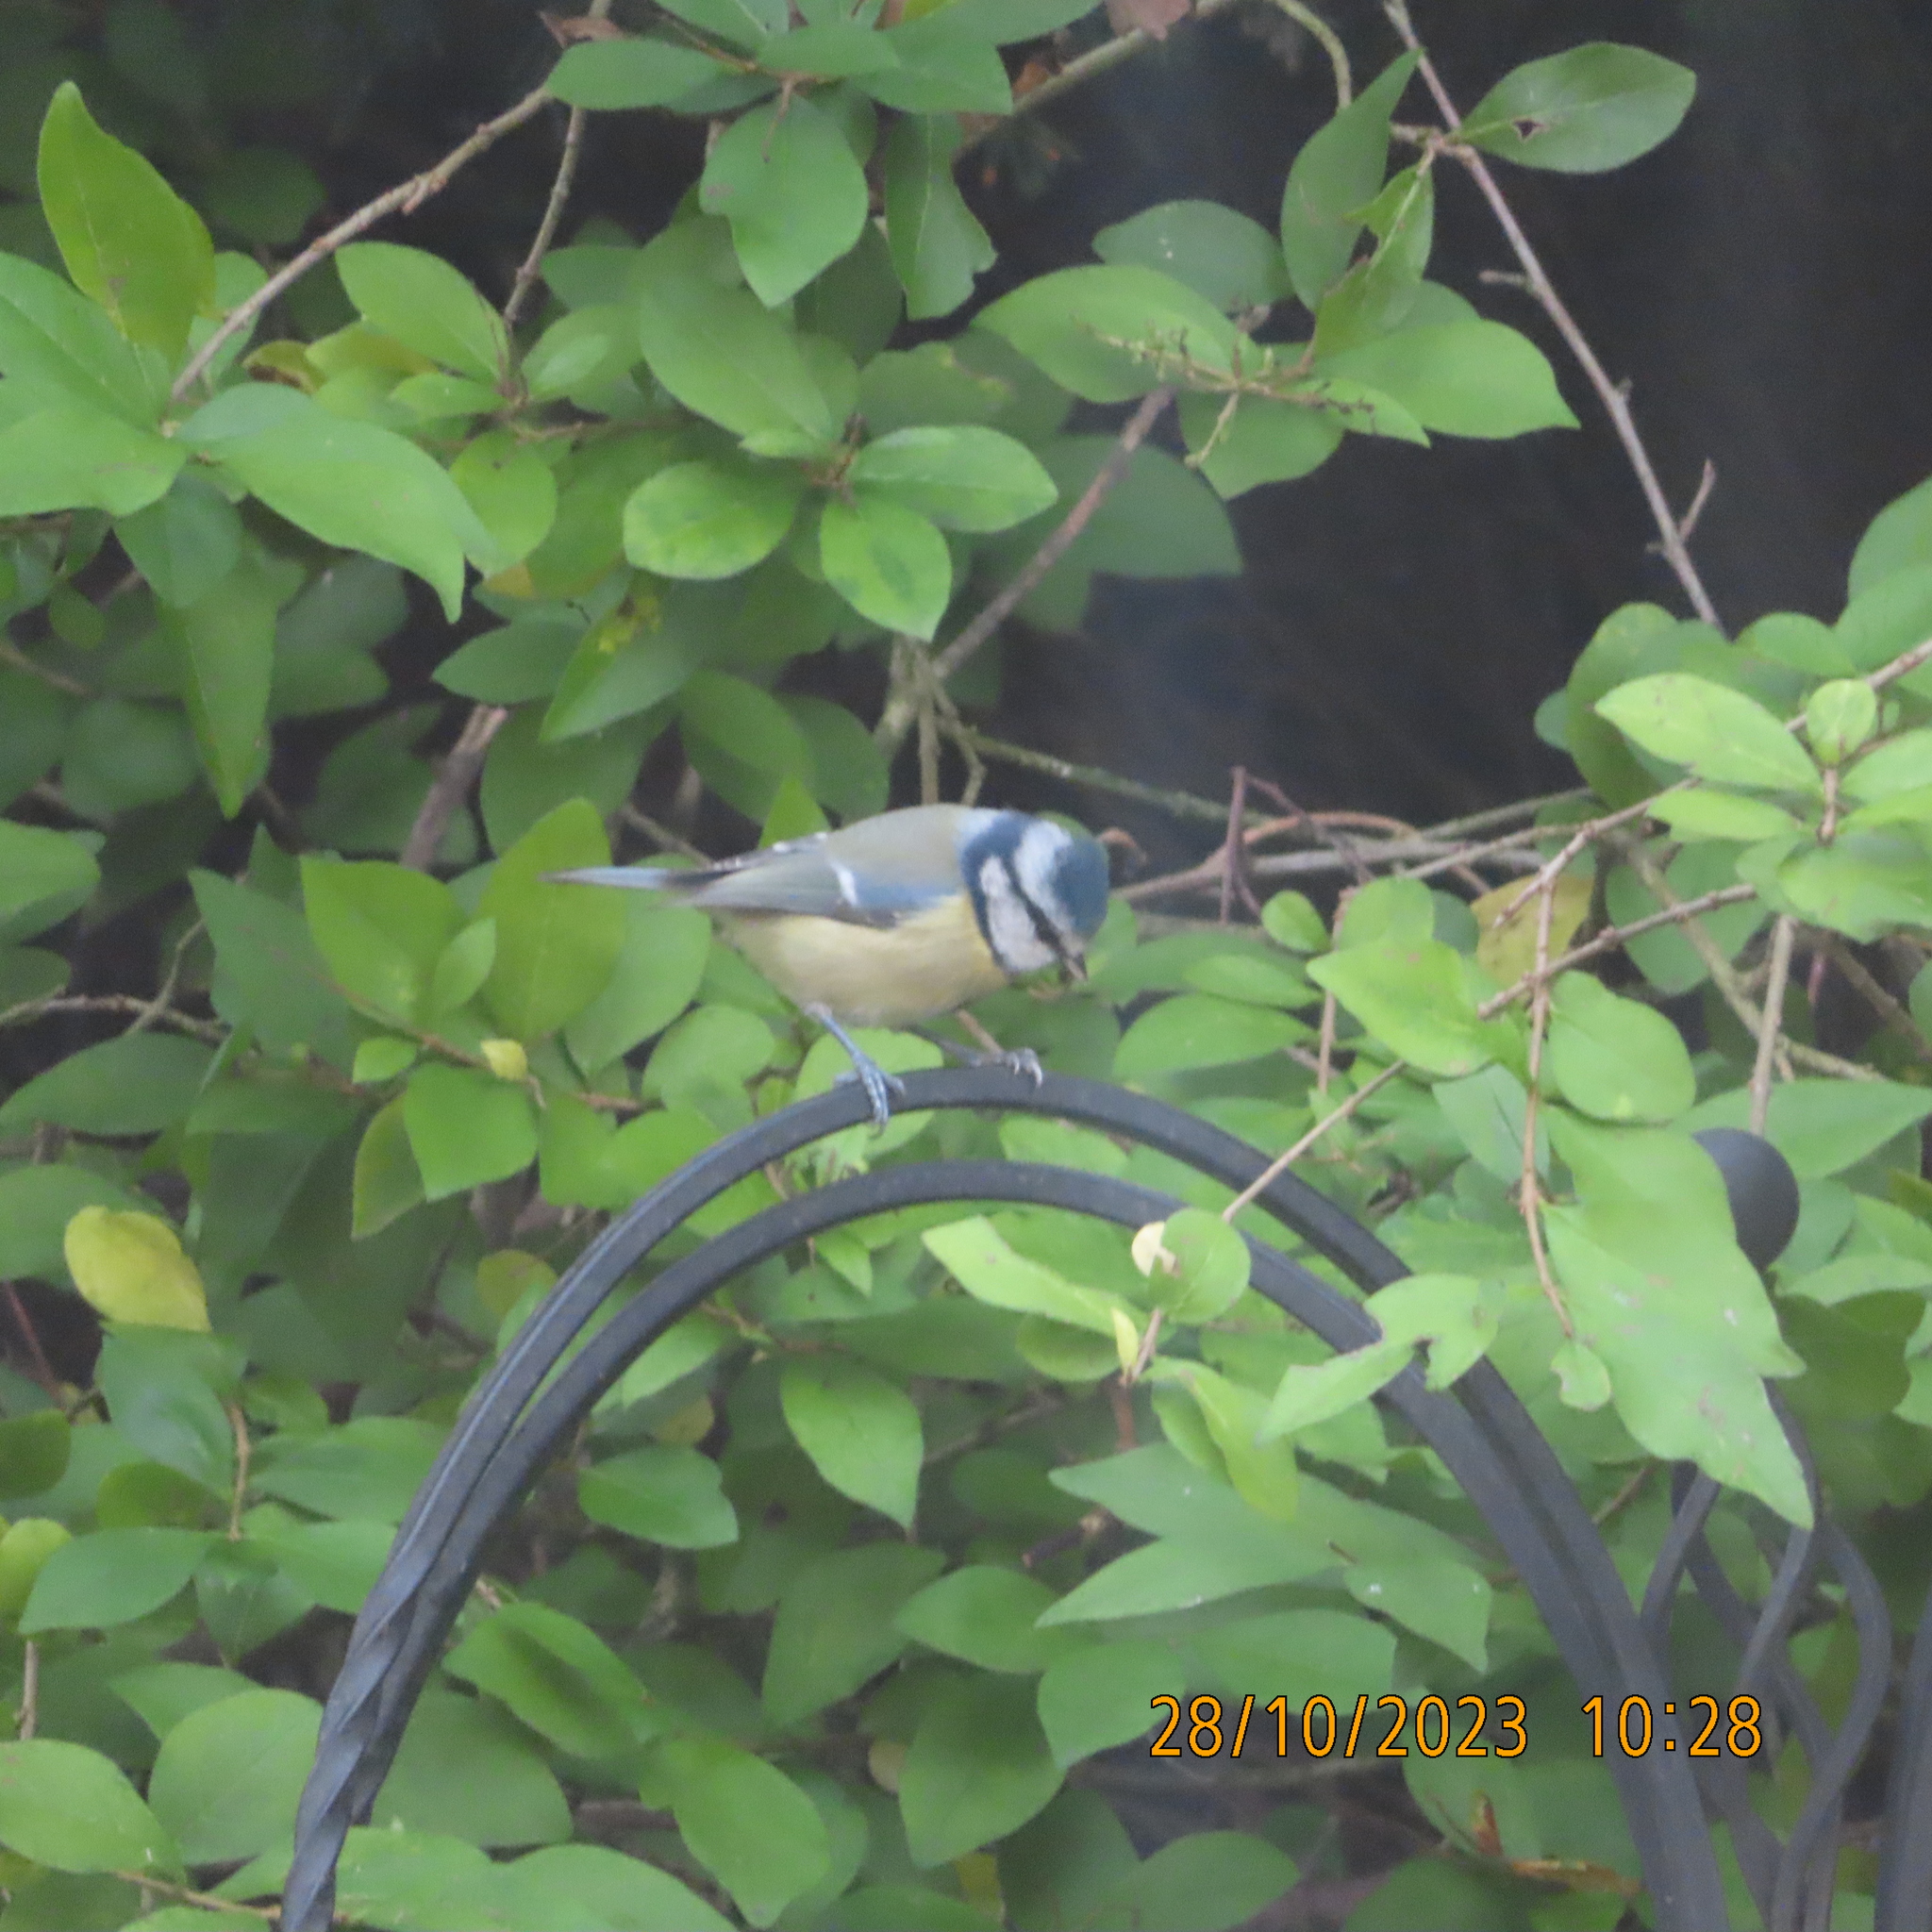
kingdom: Animalia
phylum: Chordata
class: Aves
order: Passeriformes
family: Paridae
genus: Cyanistes
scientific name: Cyanistes caeruleus
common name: Eurasian blue tit
